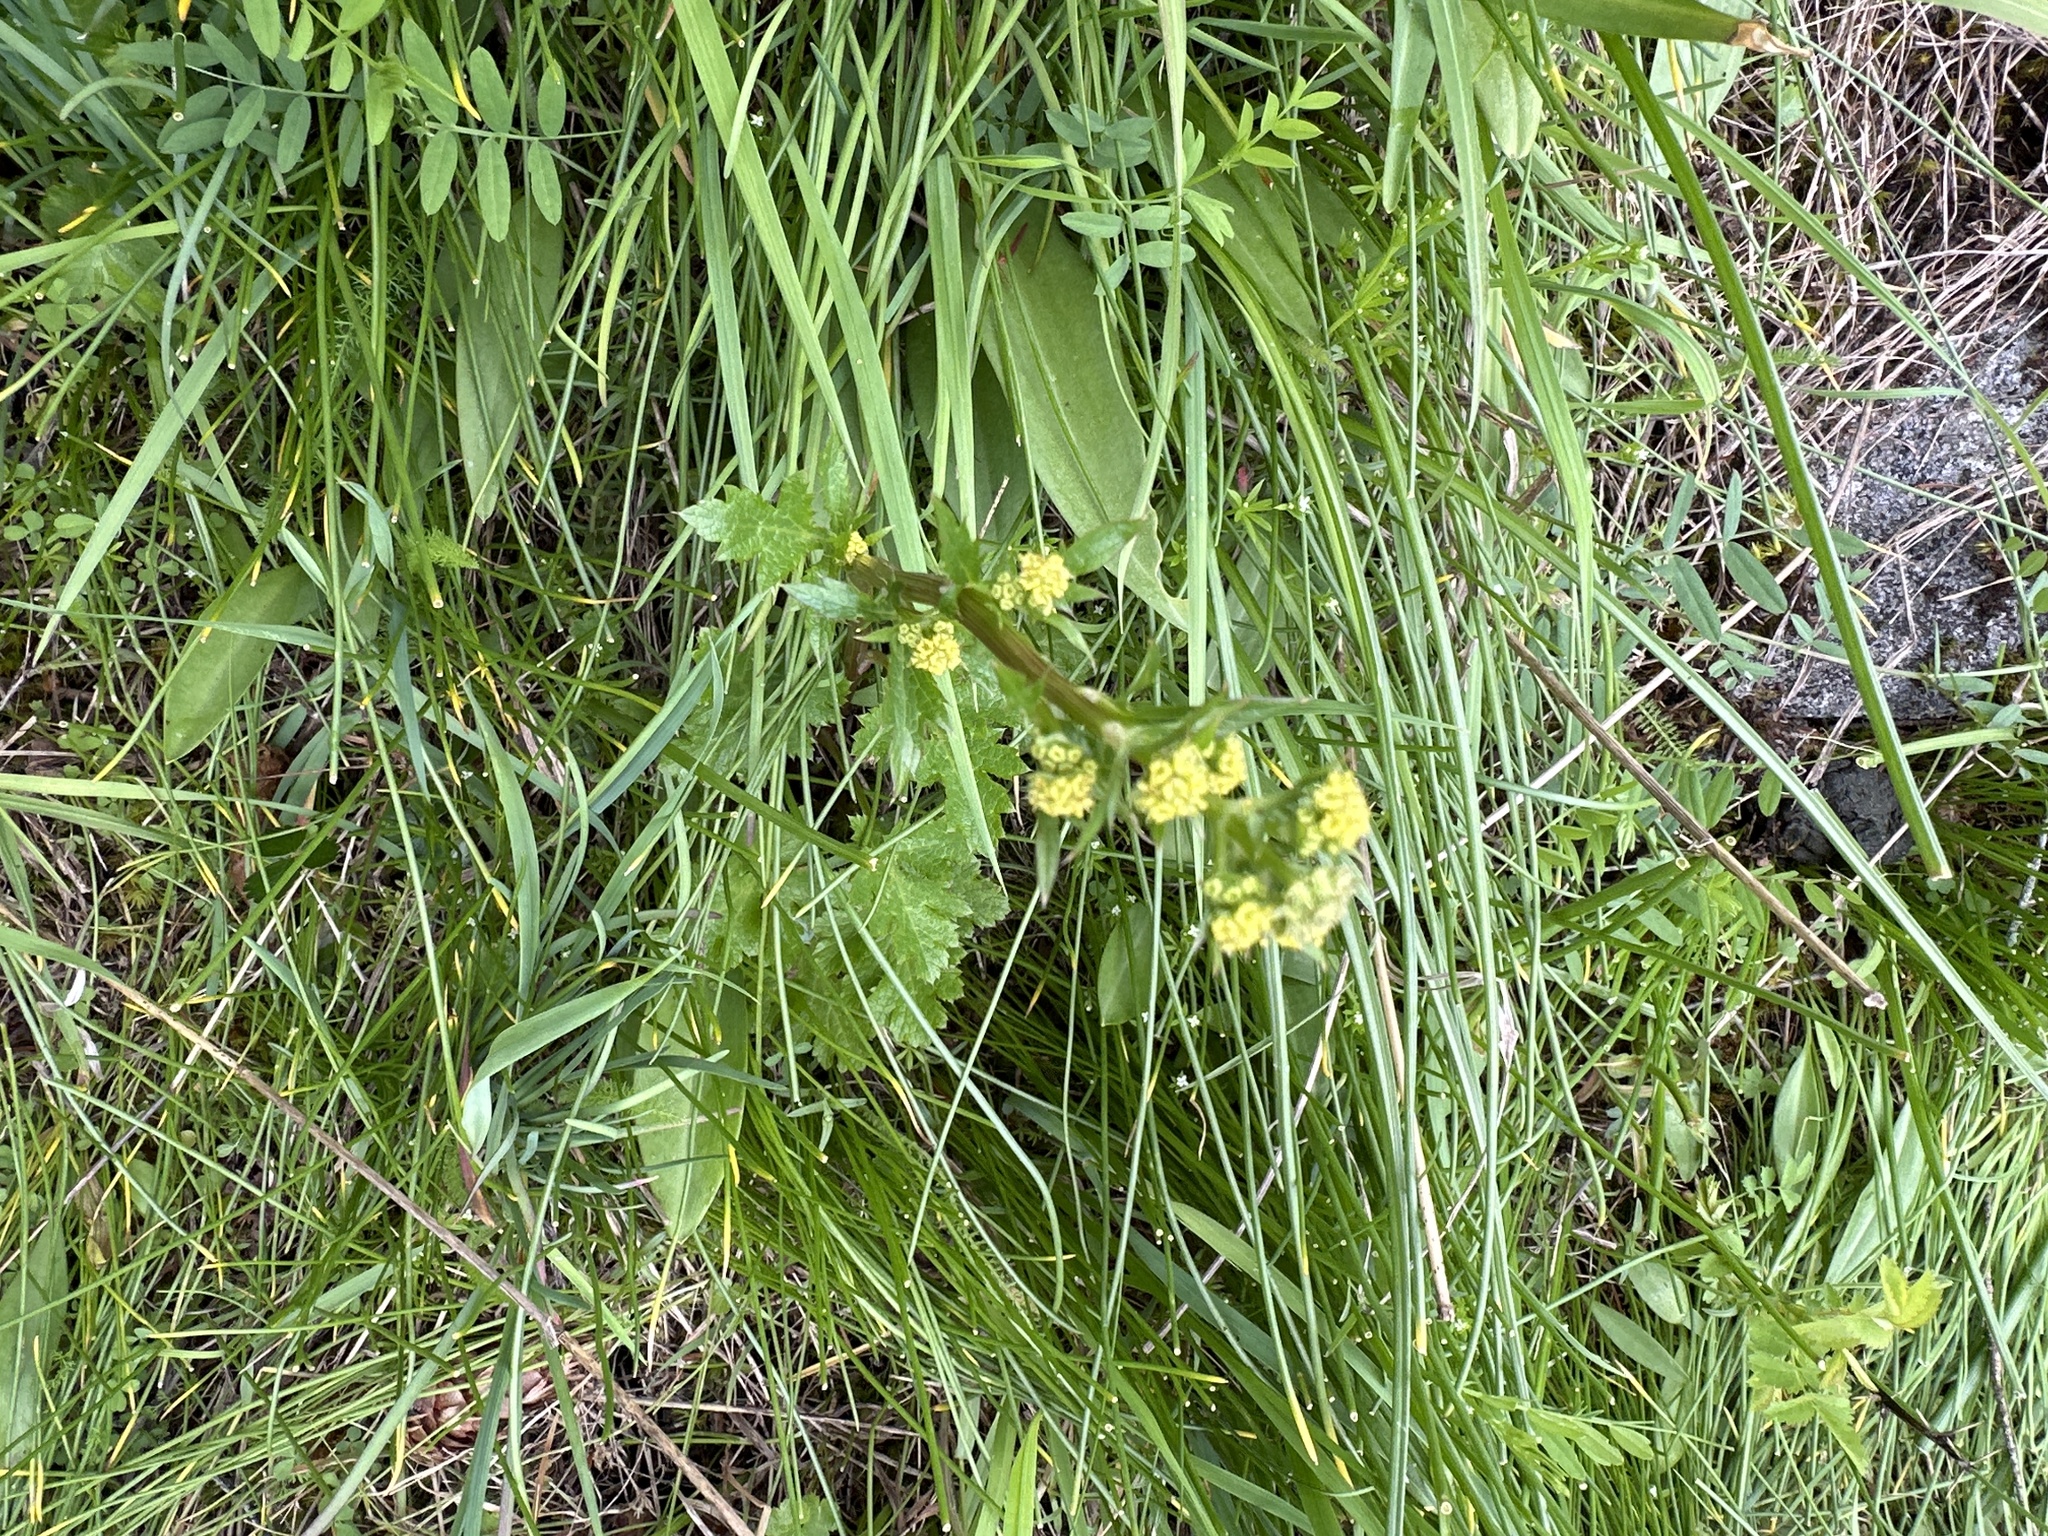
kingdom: Plantae
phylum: Tracheophyta
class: Magnoliopsida
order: Apiales
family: Apiaceae
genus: Sanicula
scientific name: Sanicula crassicaulis
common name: Western snakeroot
